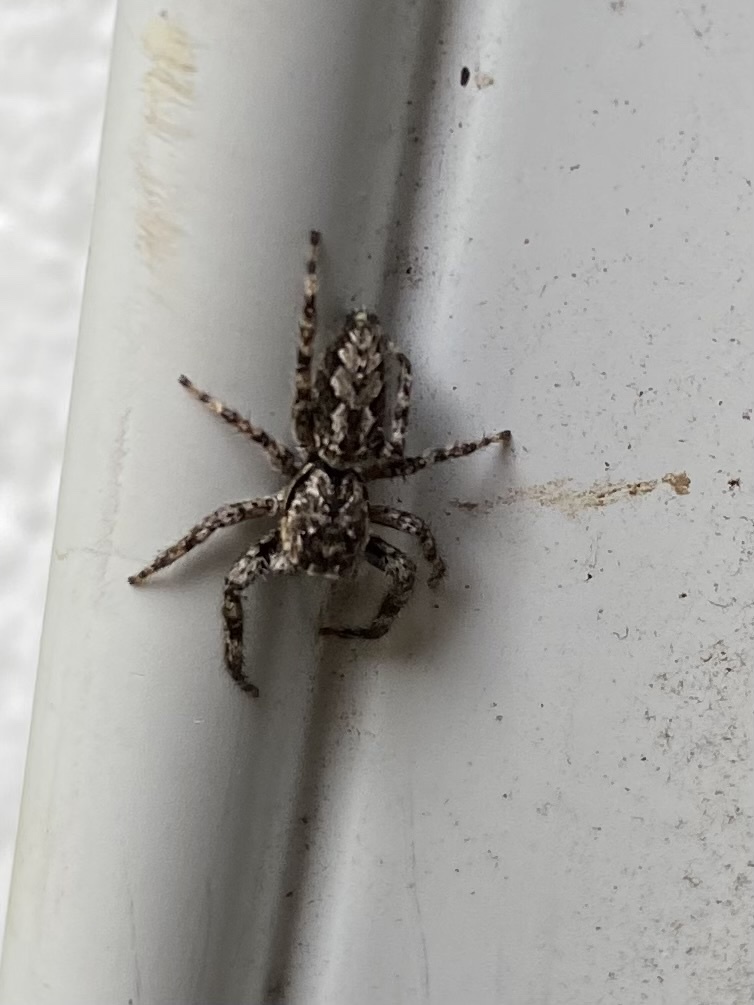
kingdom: Animalia
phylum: Arthropoda
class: Arachnida
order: Araneae
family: Salticidae
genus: Platycryptus
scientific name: Platycryptus undatus
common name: Tan jumping spider
